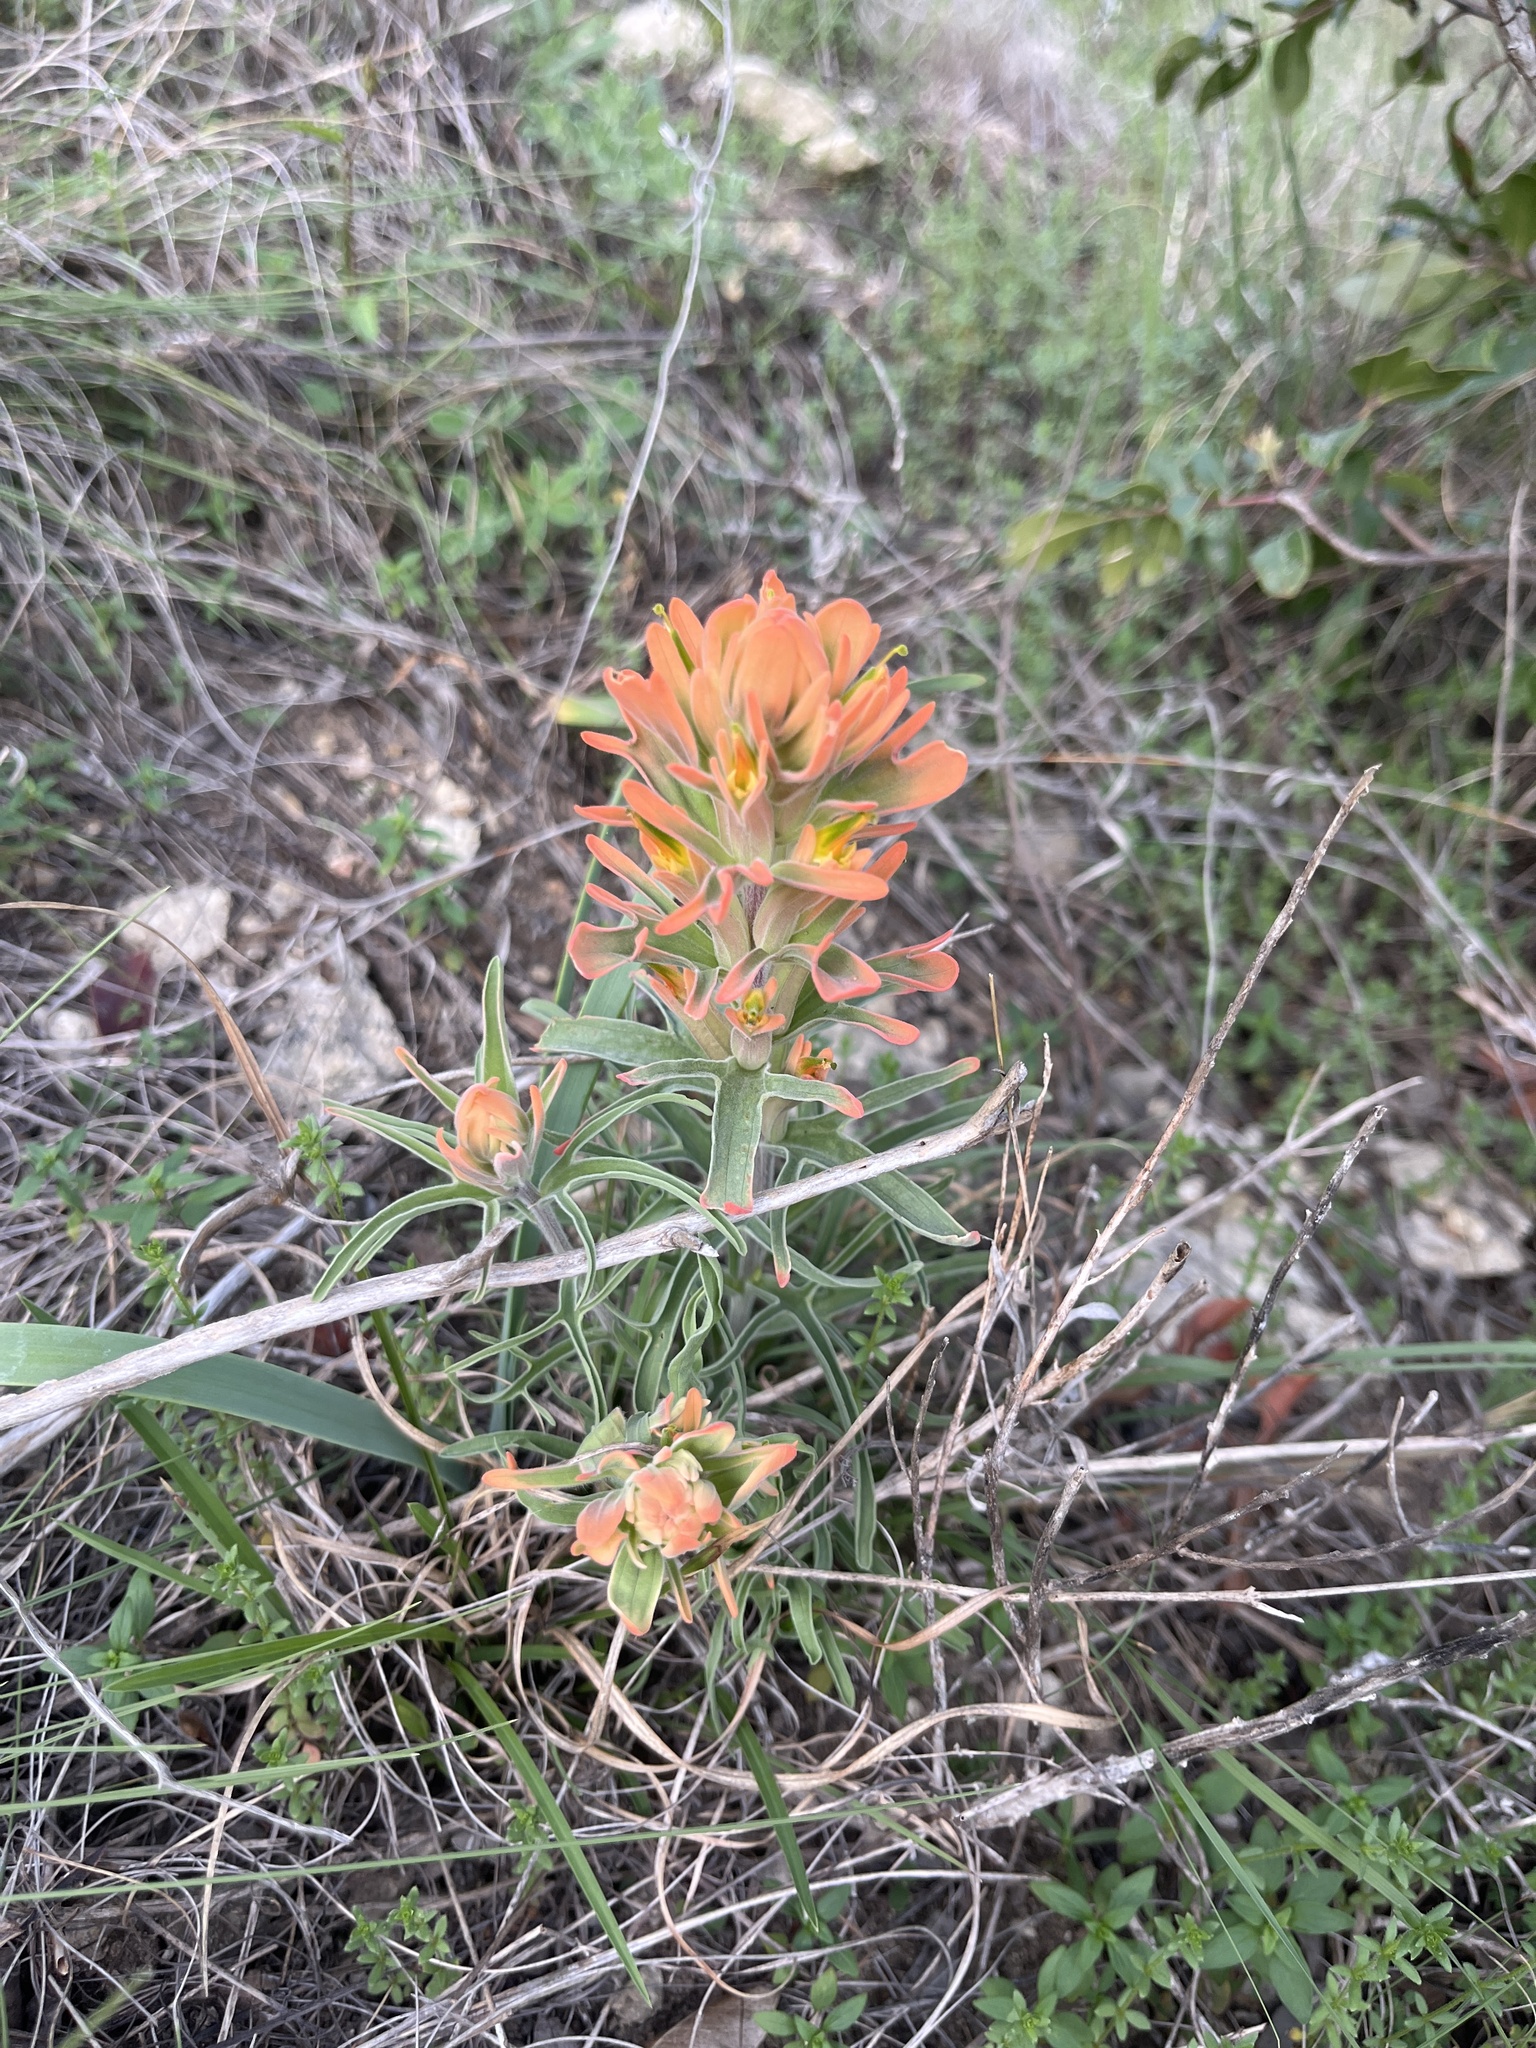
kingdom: Plantae
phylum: Tracheophyta
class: Magnoliopsida
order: Lamiales
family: Orobanchaceae
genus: Castilleja
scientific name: Castilleja lindheimeri
